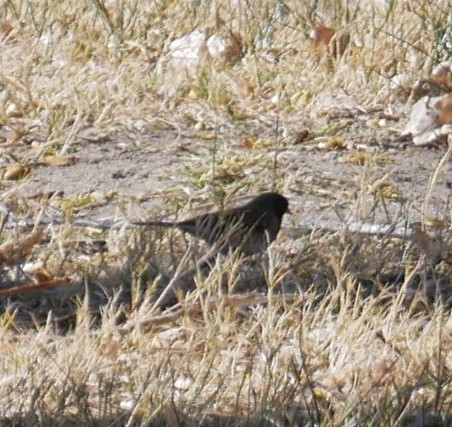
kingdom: Animalia
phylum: Chordata
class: Aves
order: Passeriformes
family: Passerellidae
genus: Junco
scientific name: Junco hyemalis
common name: Dark-eyed junco
